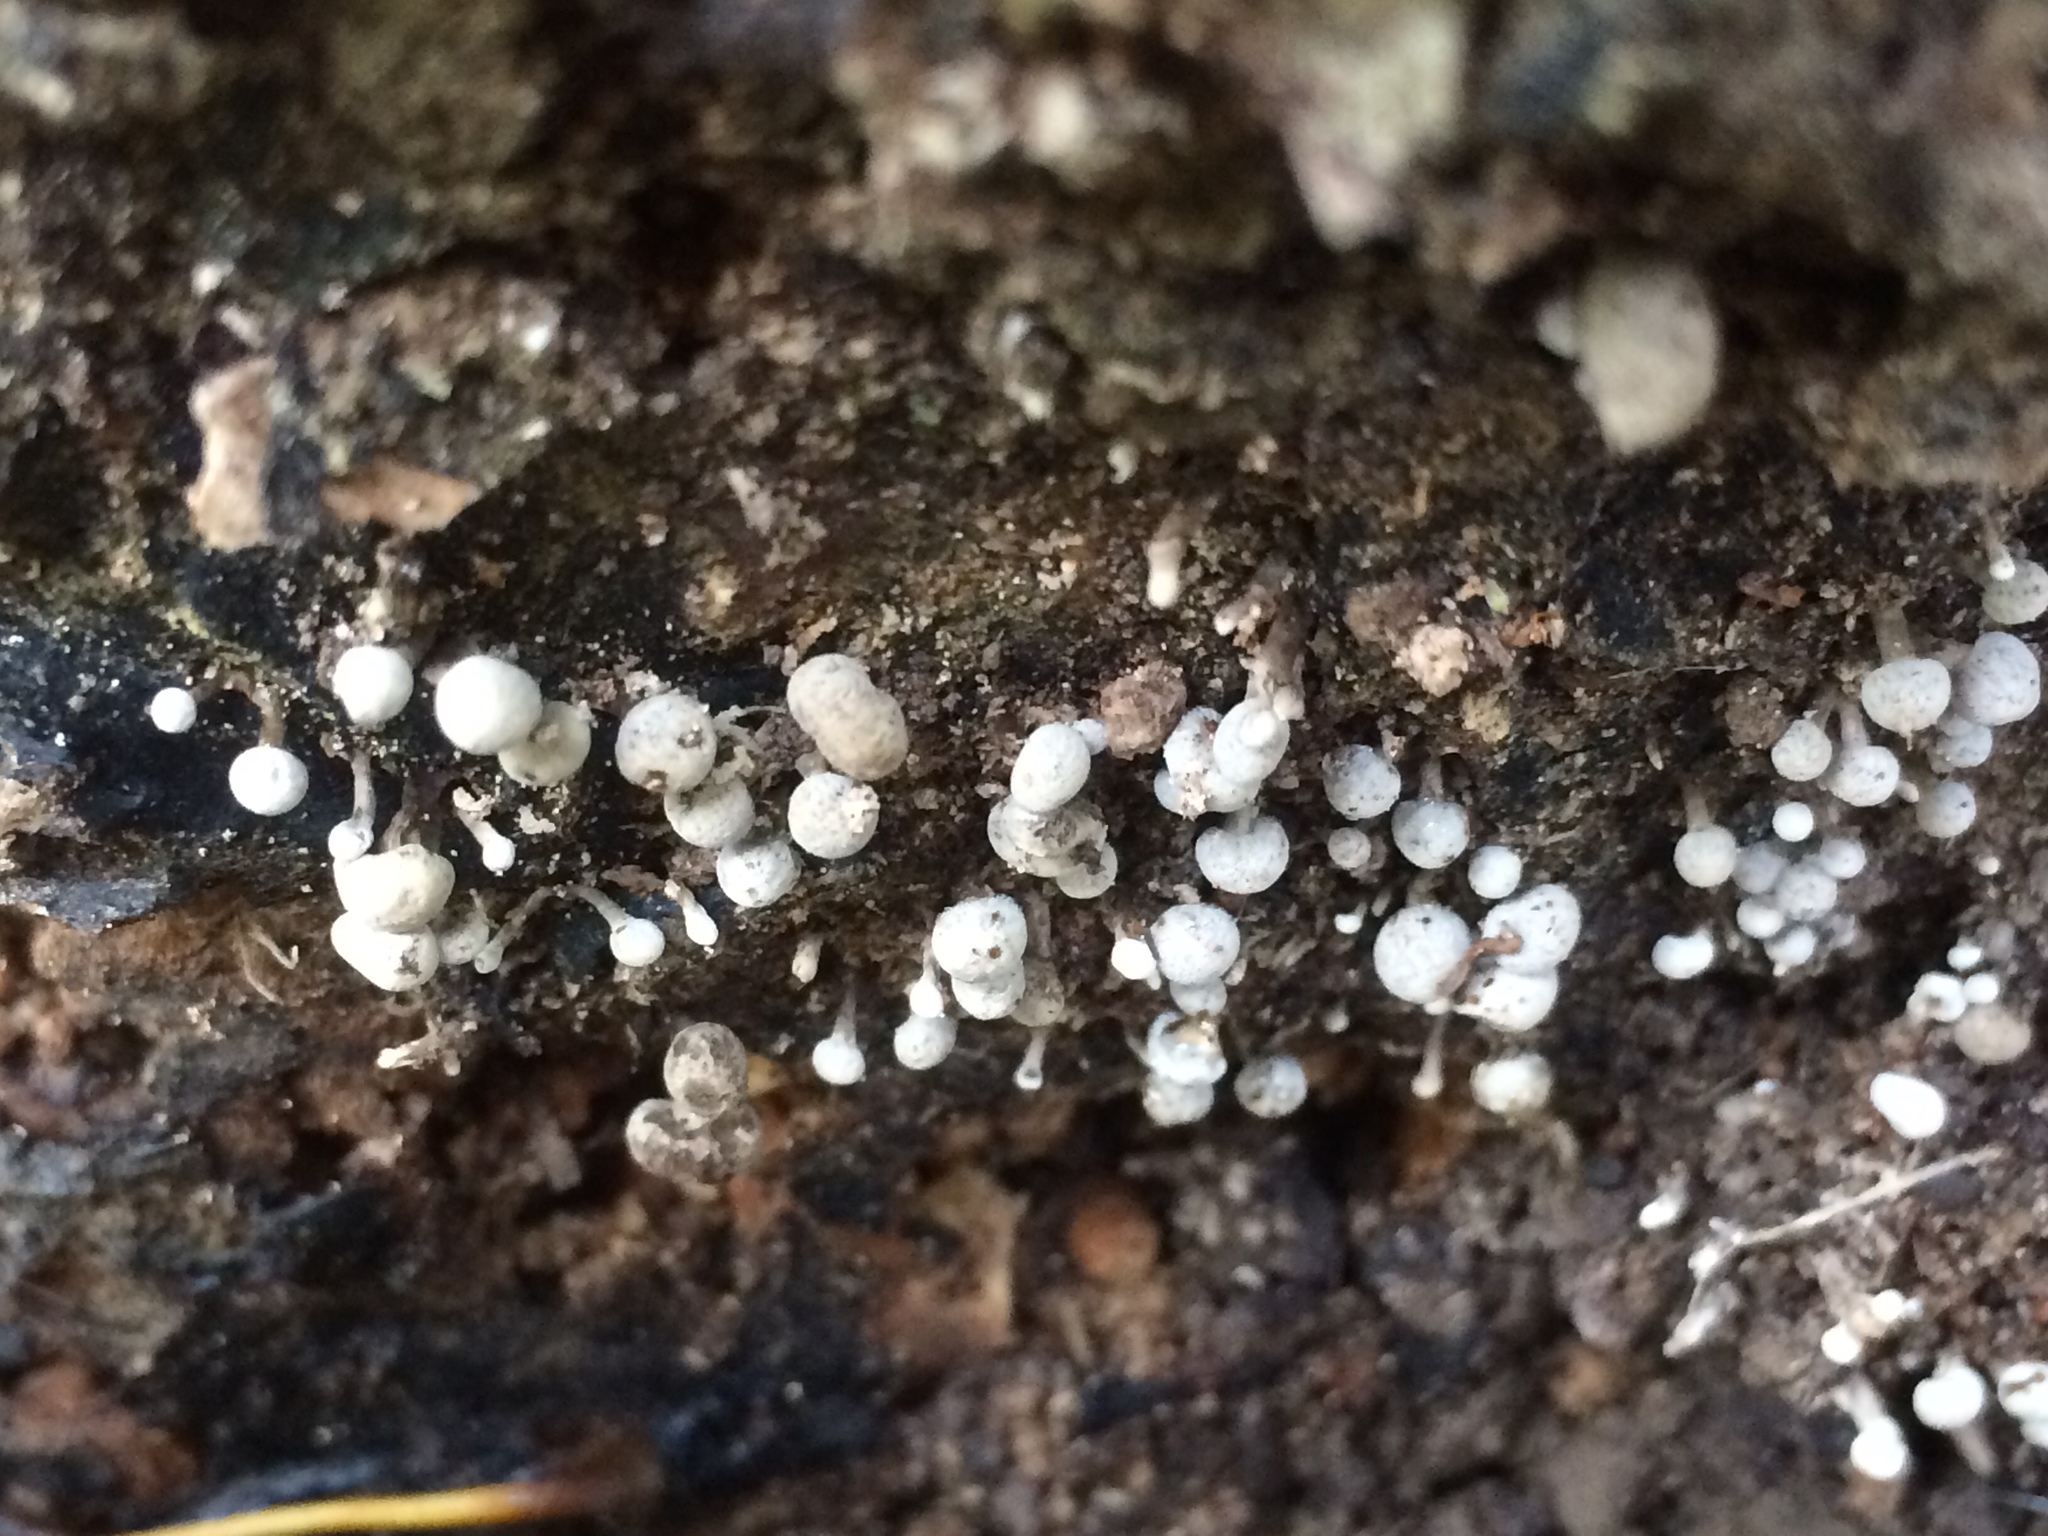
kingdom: Fungi
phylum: Basidiomycota
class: Atractiellomycetes
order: Atractiellales
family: Phleogenaceae
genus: Phleogena
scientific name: Phleogena faginea
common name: Fenugreek stalkball
